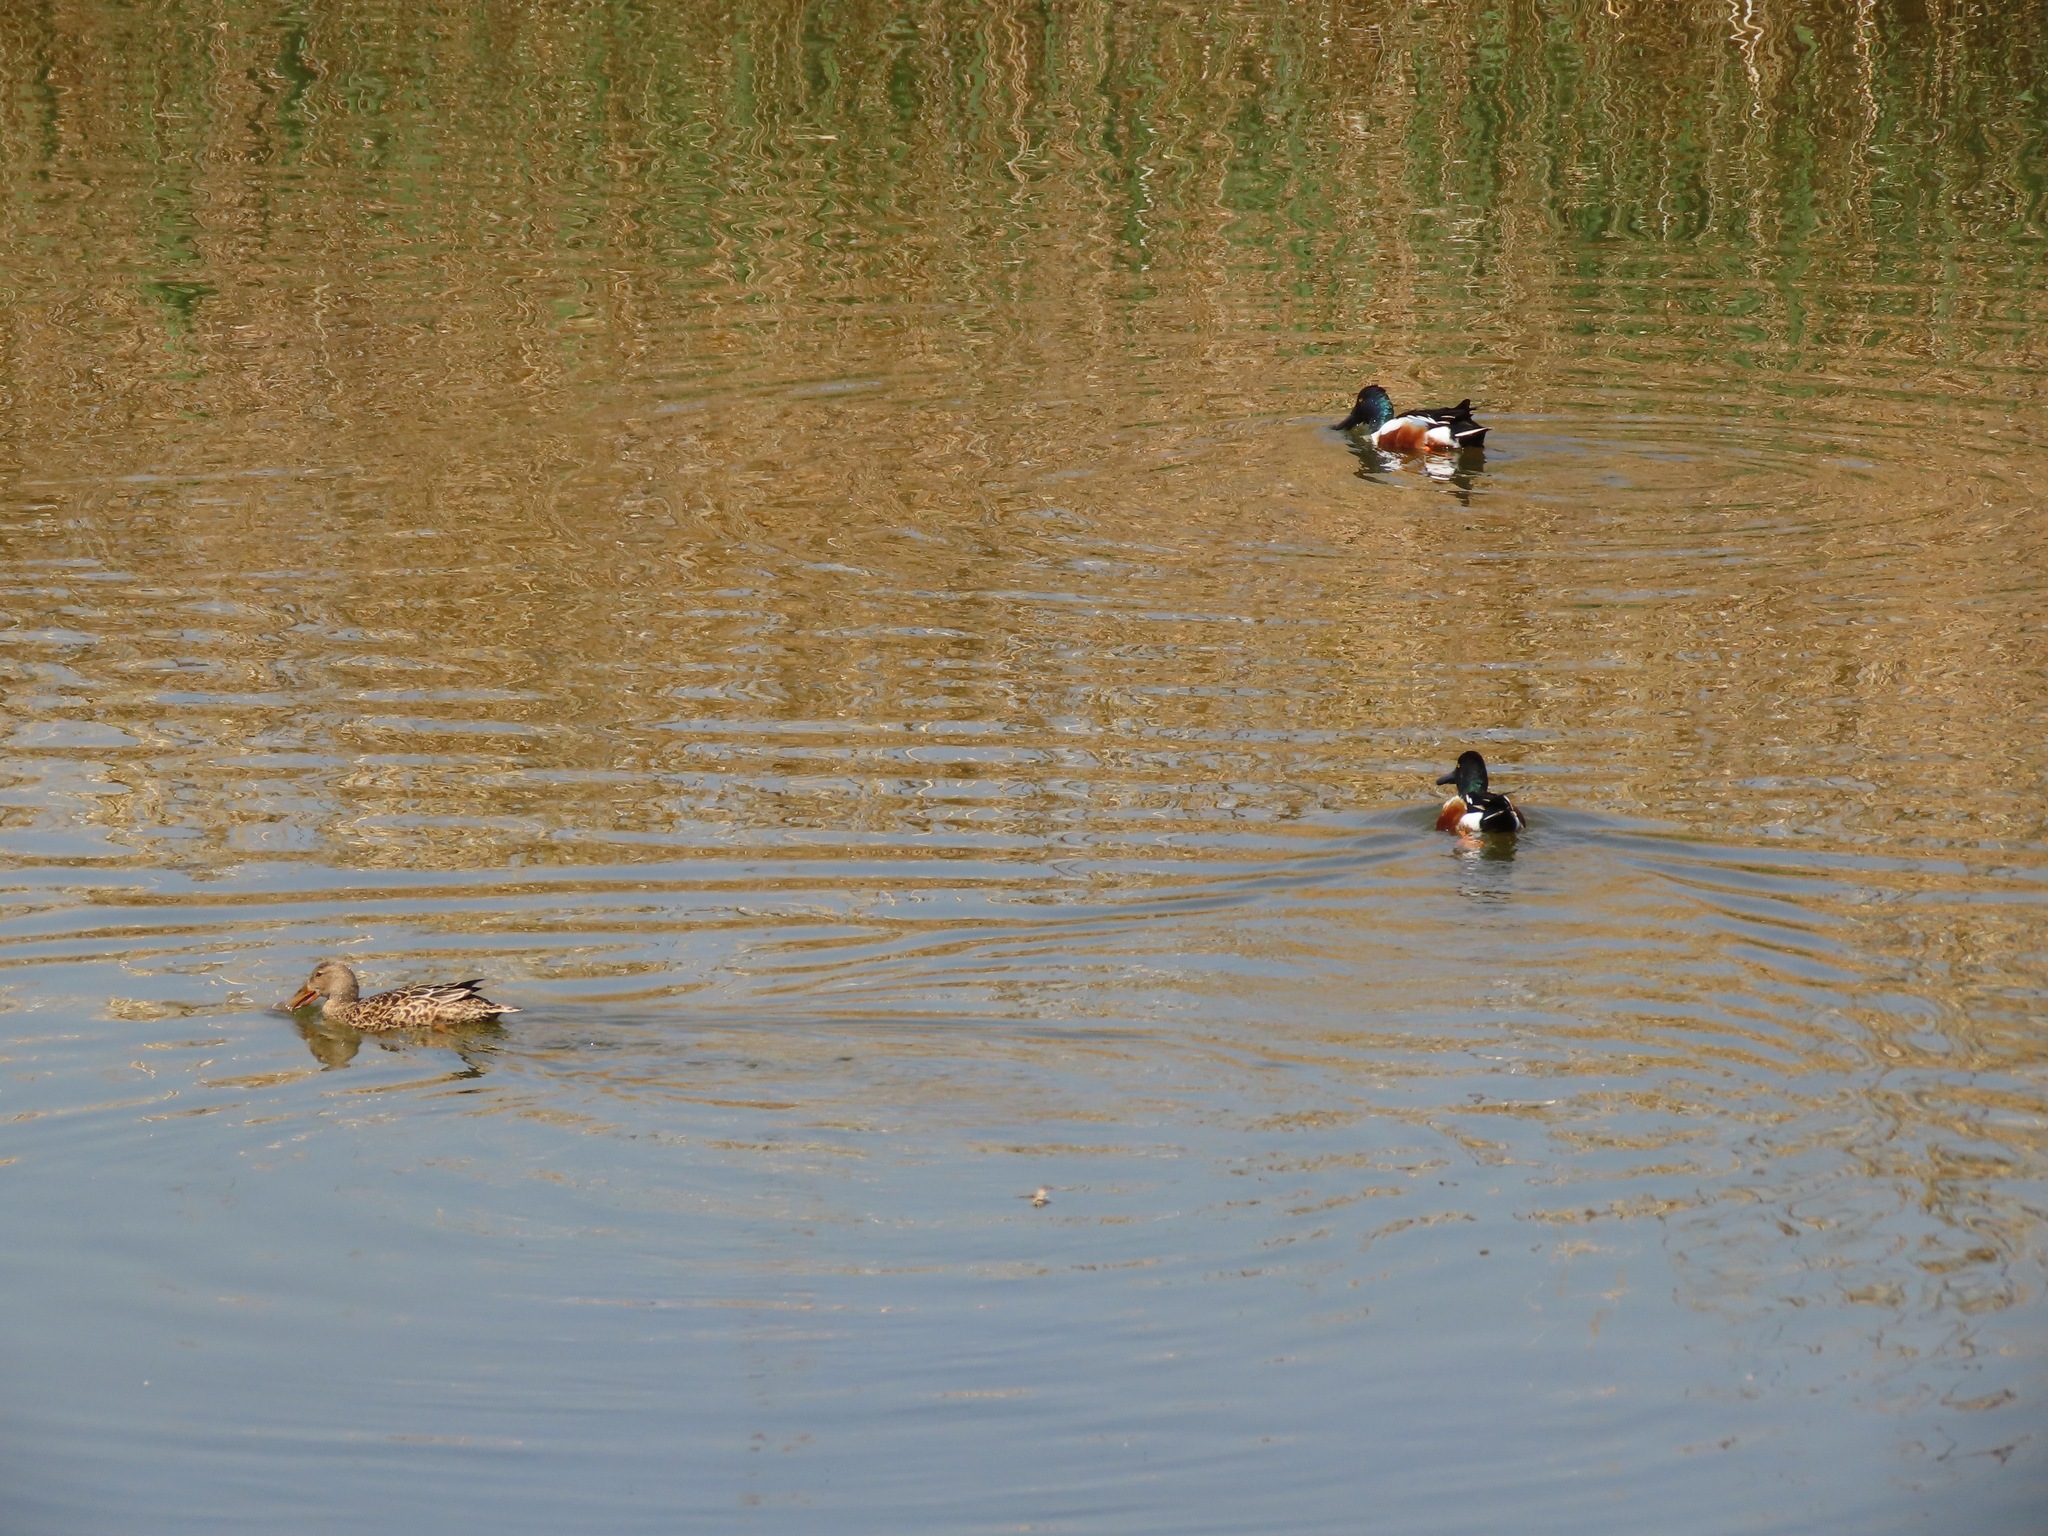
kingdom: Animalia
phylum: Chordata
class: Aves
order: Anseriformes
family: Anatidae
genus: Spatula
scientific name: Spatula clypeata
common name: Northern shoveler
